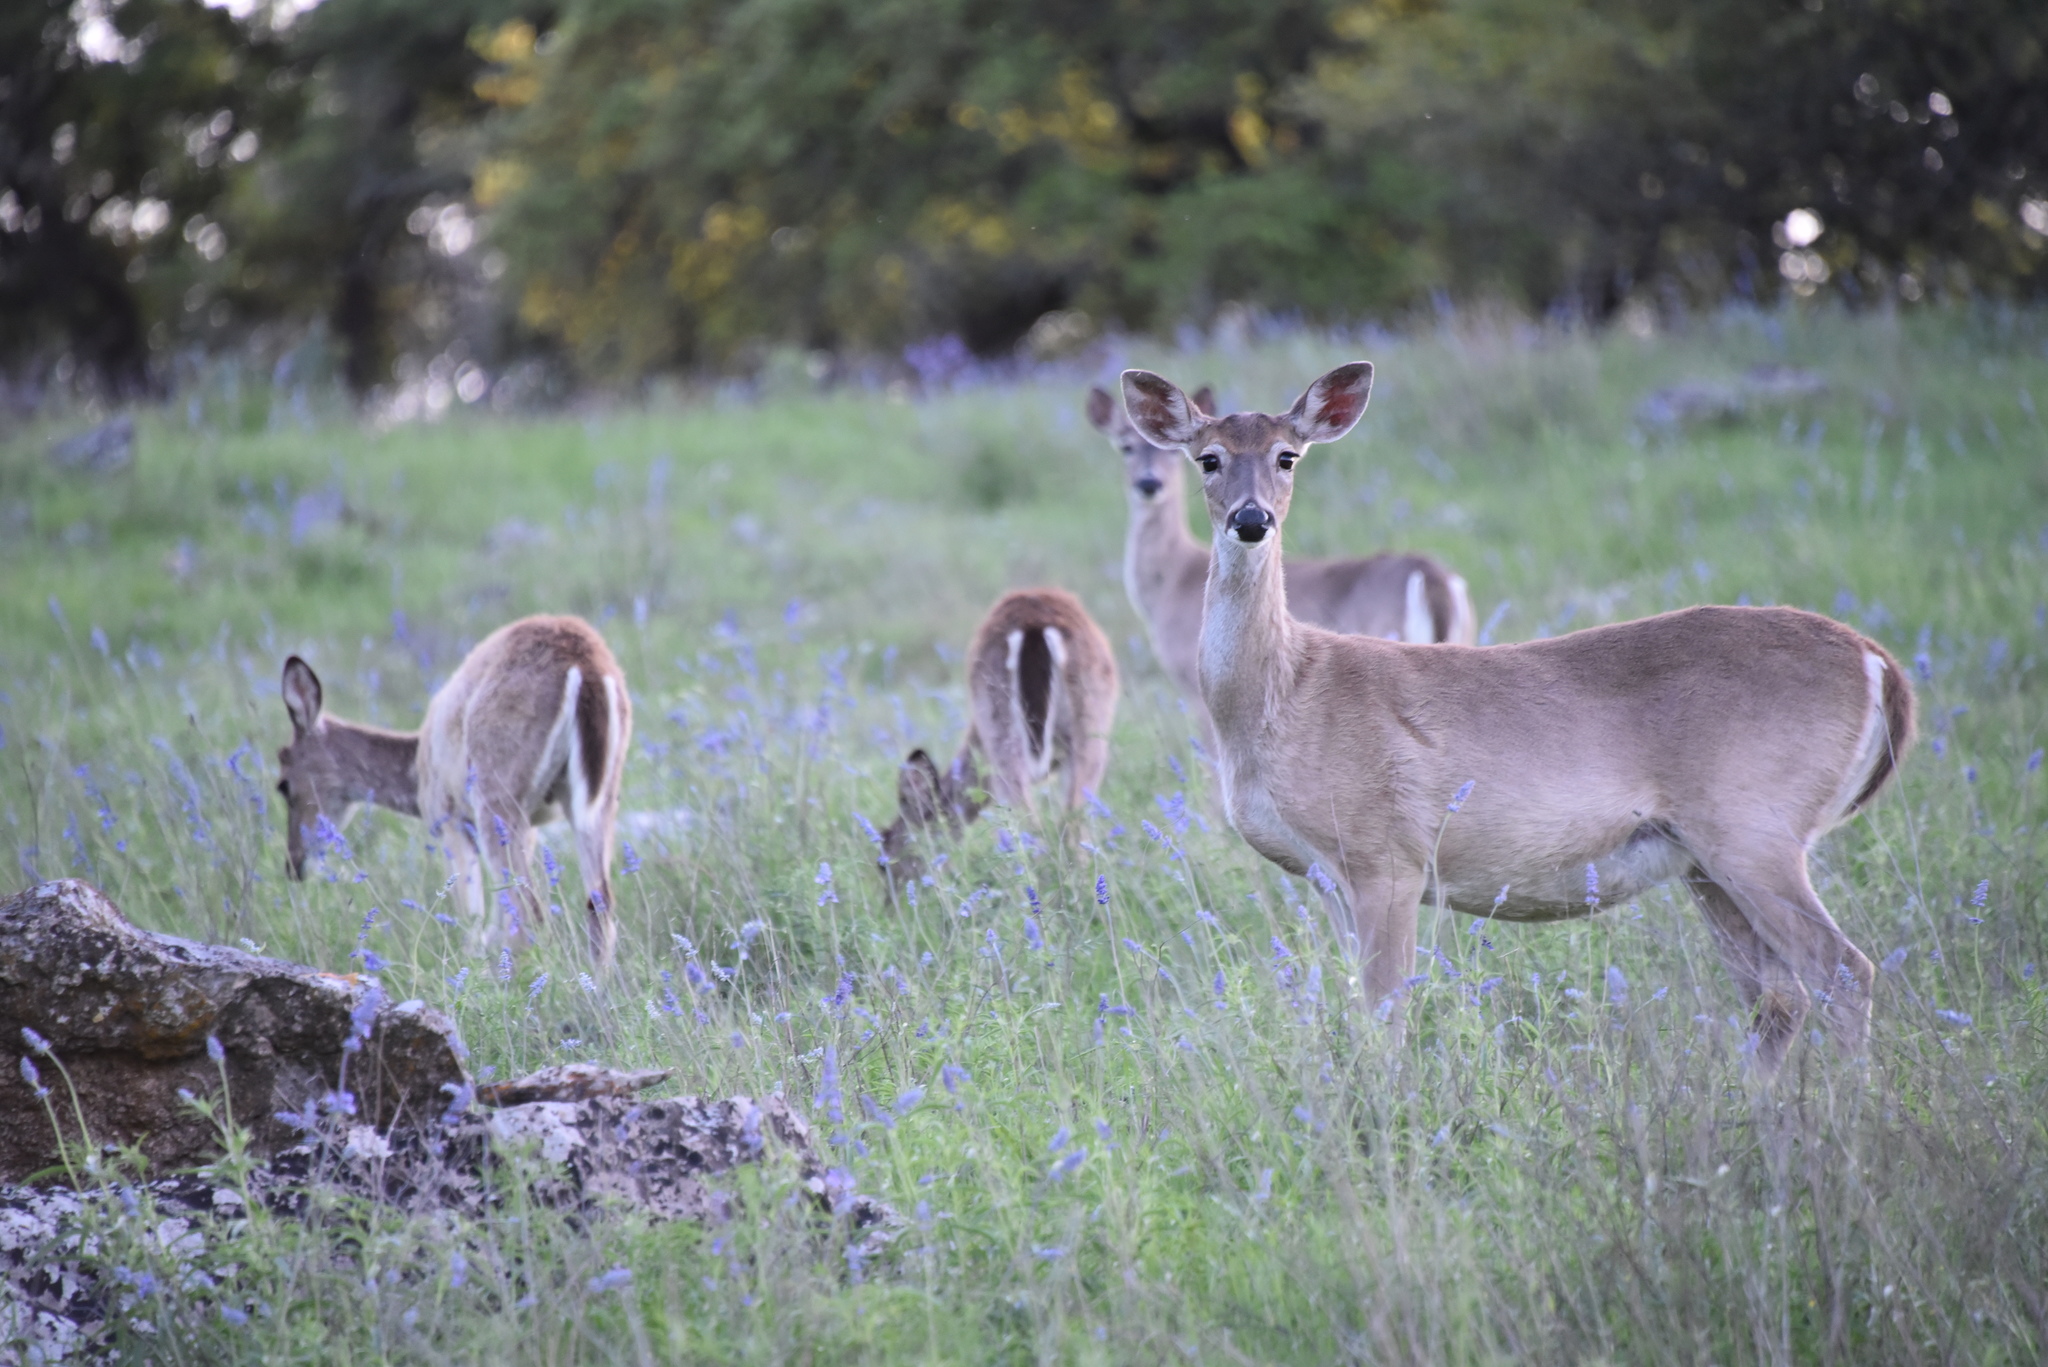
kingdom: Animalia
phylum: Chordata
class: Mammalia
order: Artiodactyla
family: Cervidae
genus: Odocoileus
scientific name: Odocoileus virginianus
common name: White-tailed deer
